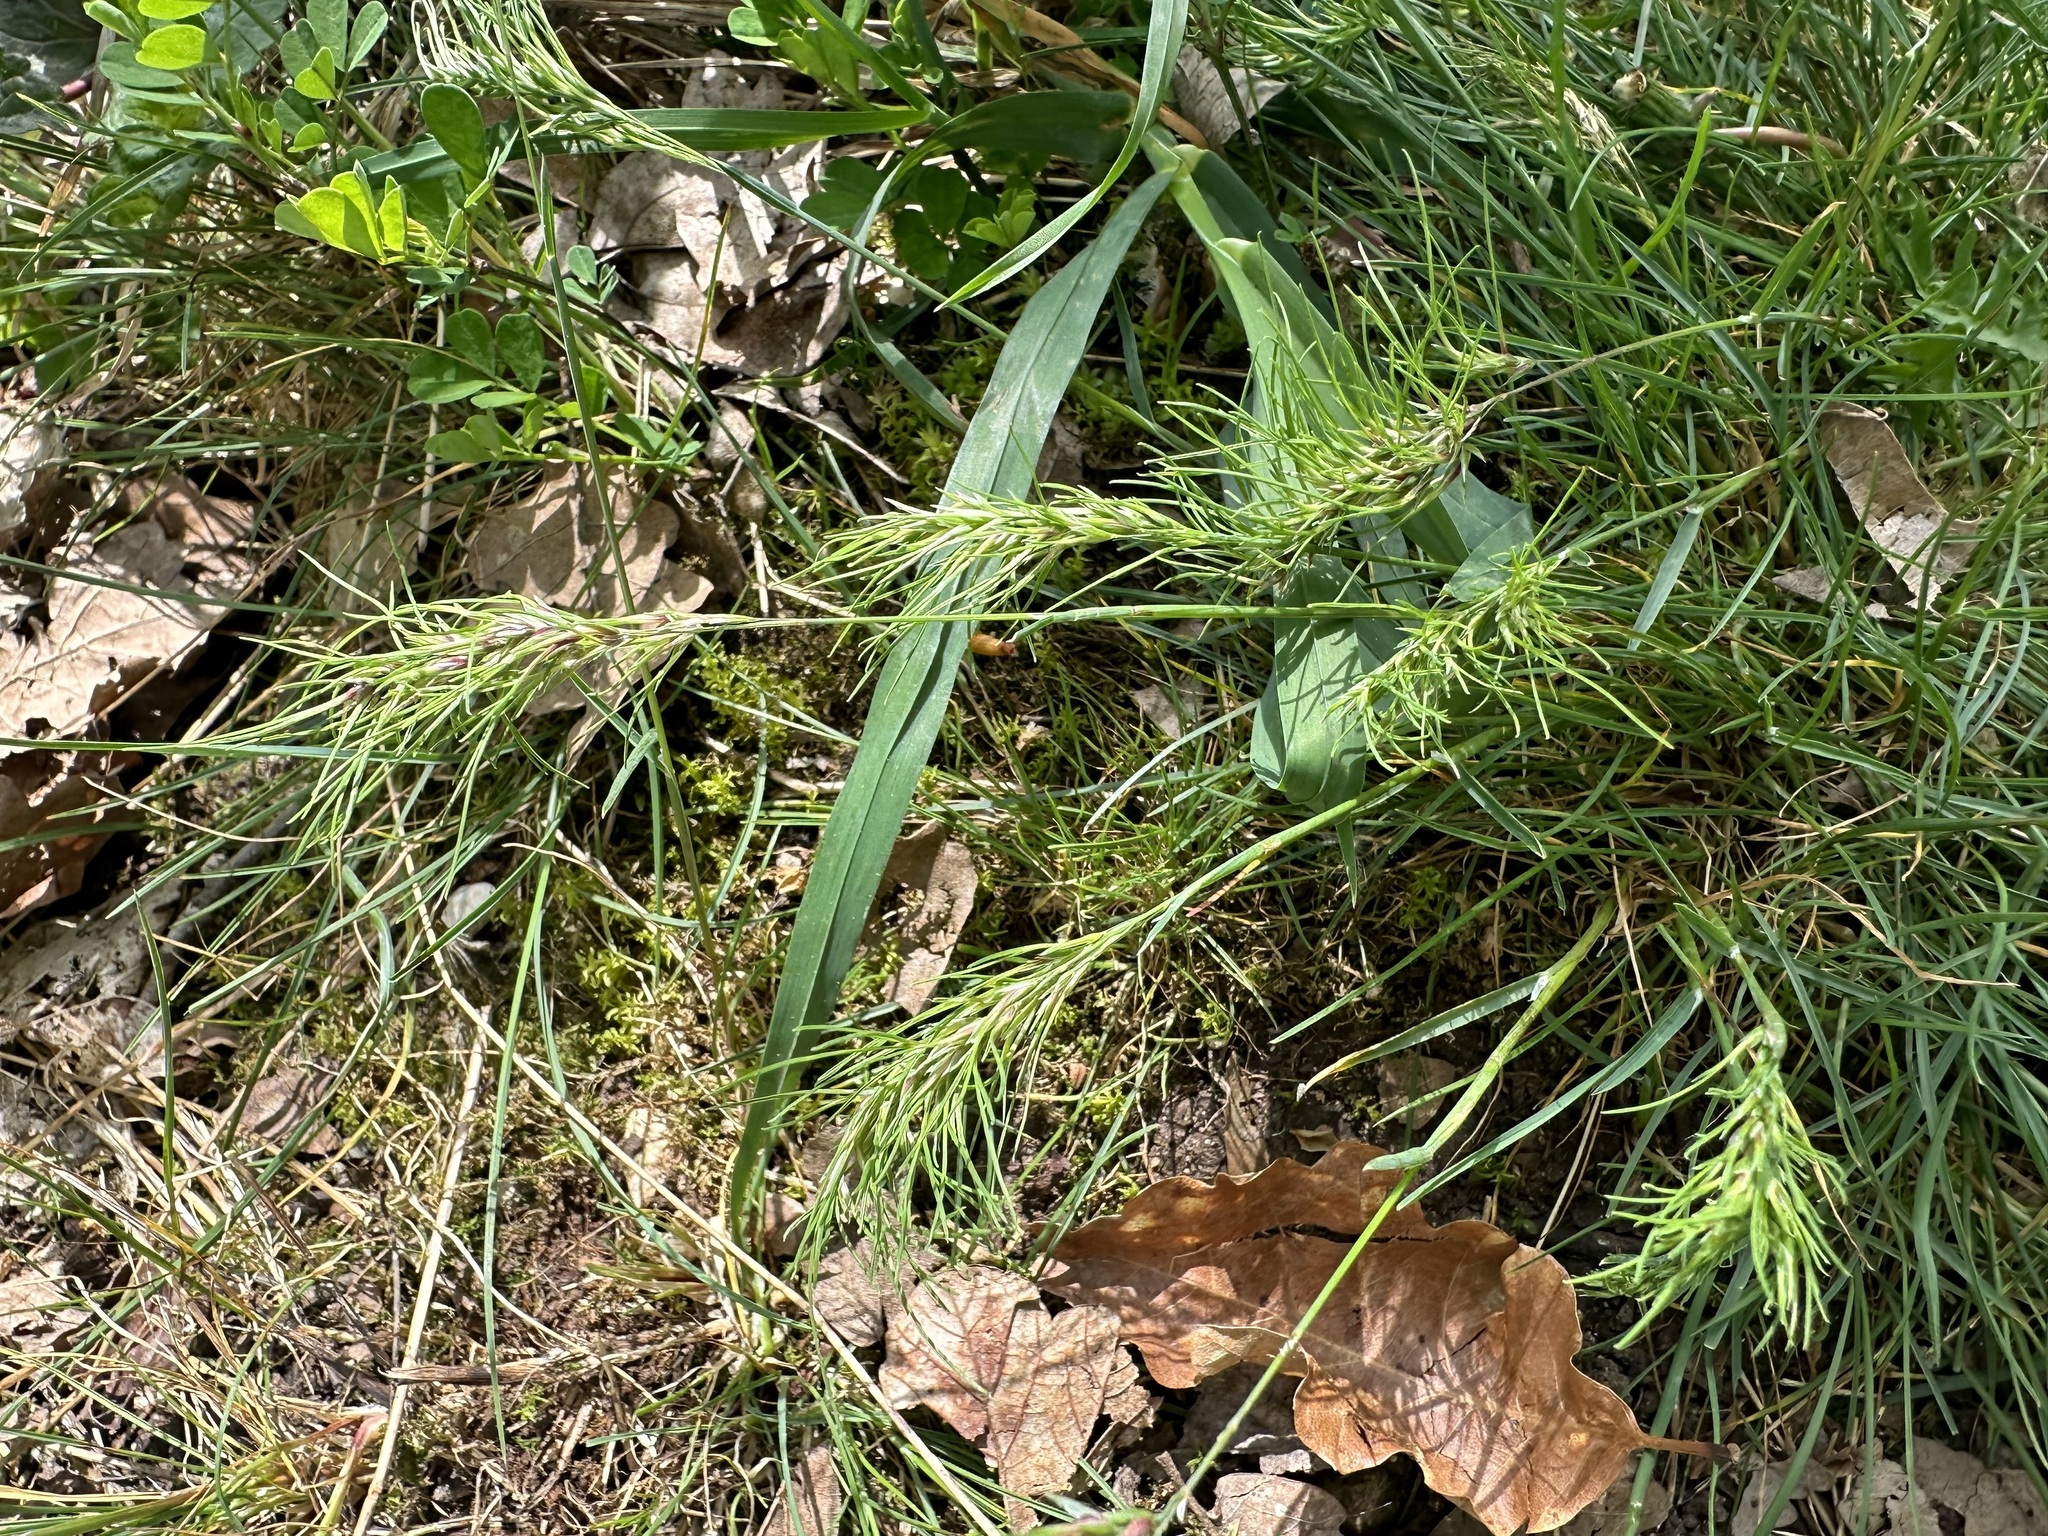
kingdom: Plantae
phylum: Tracheophyta
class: Liliopsida
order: Poales
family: Poaceae
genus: Poa
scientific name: Poa bulbosa
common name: Bulbous bluegrass
